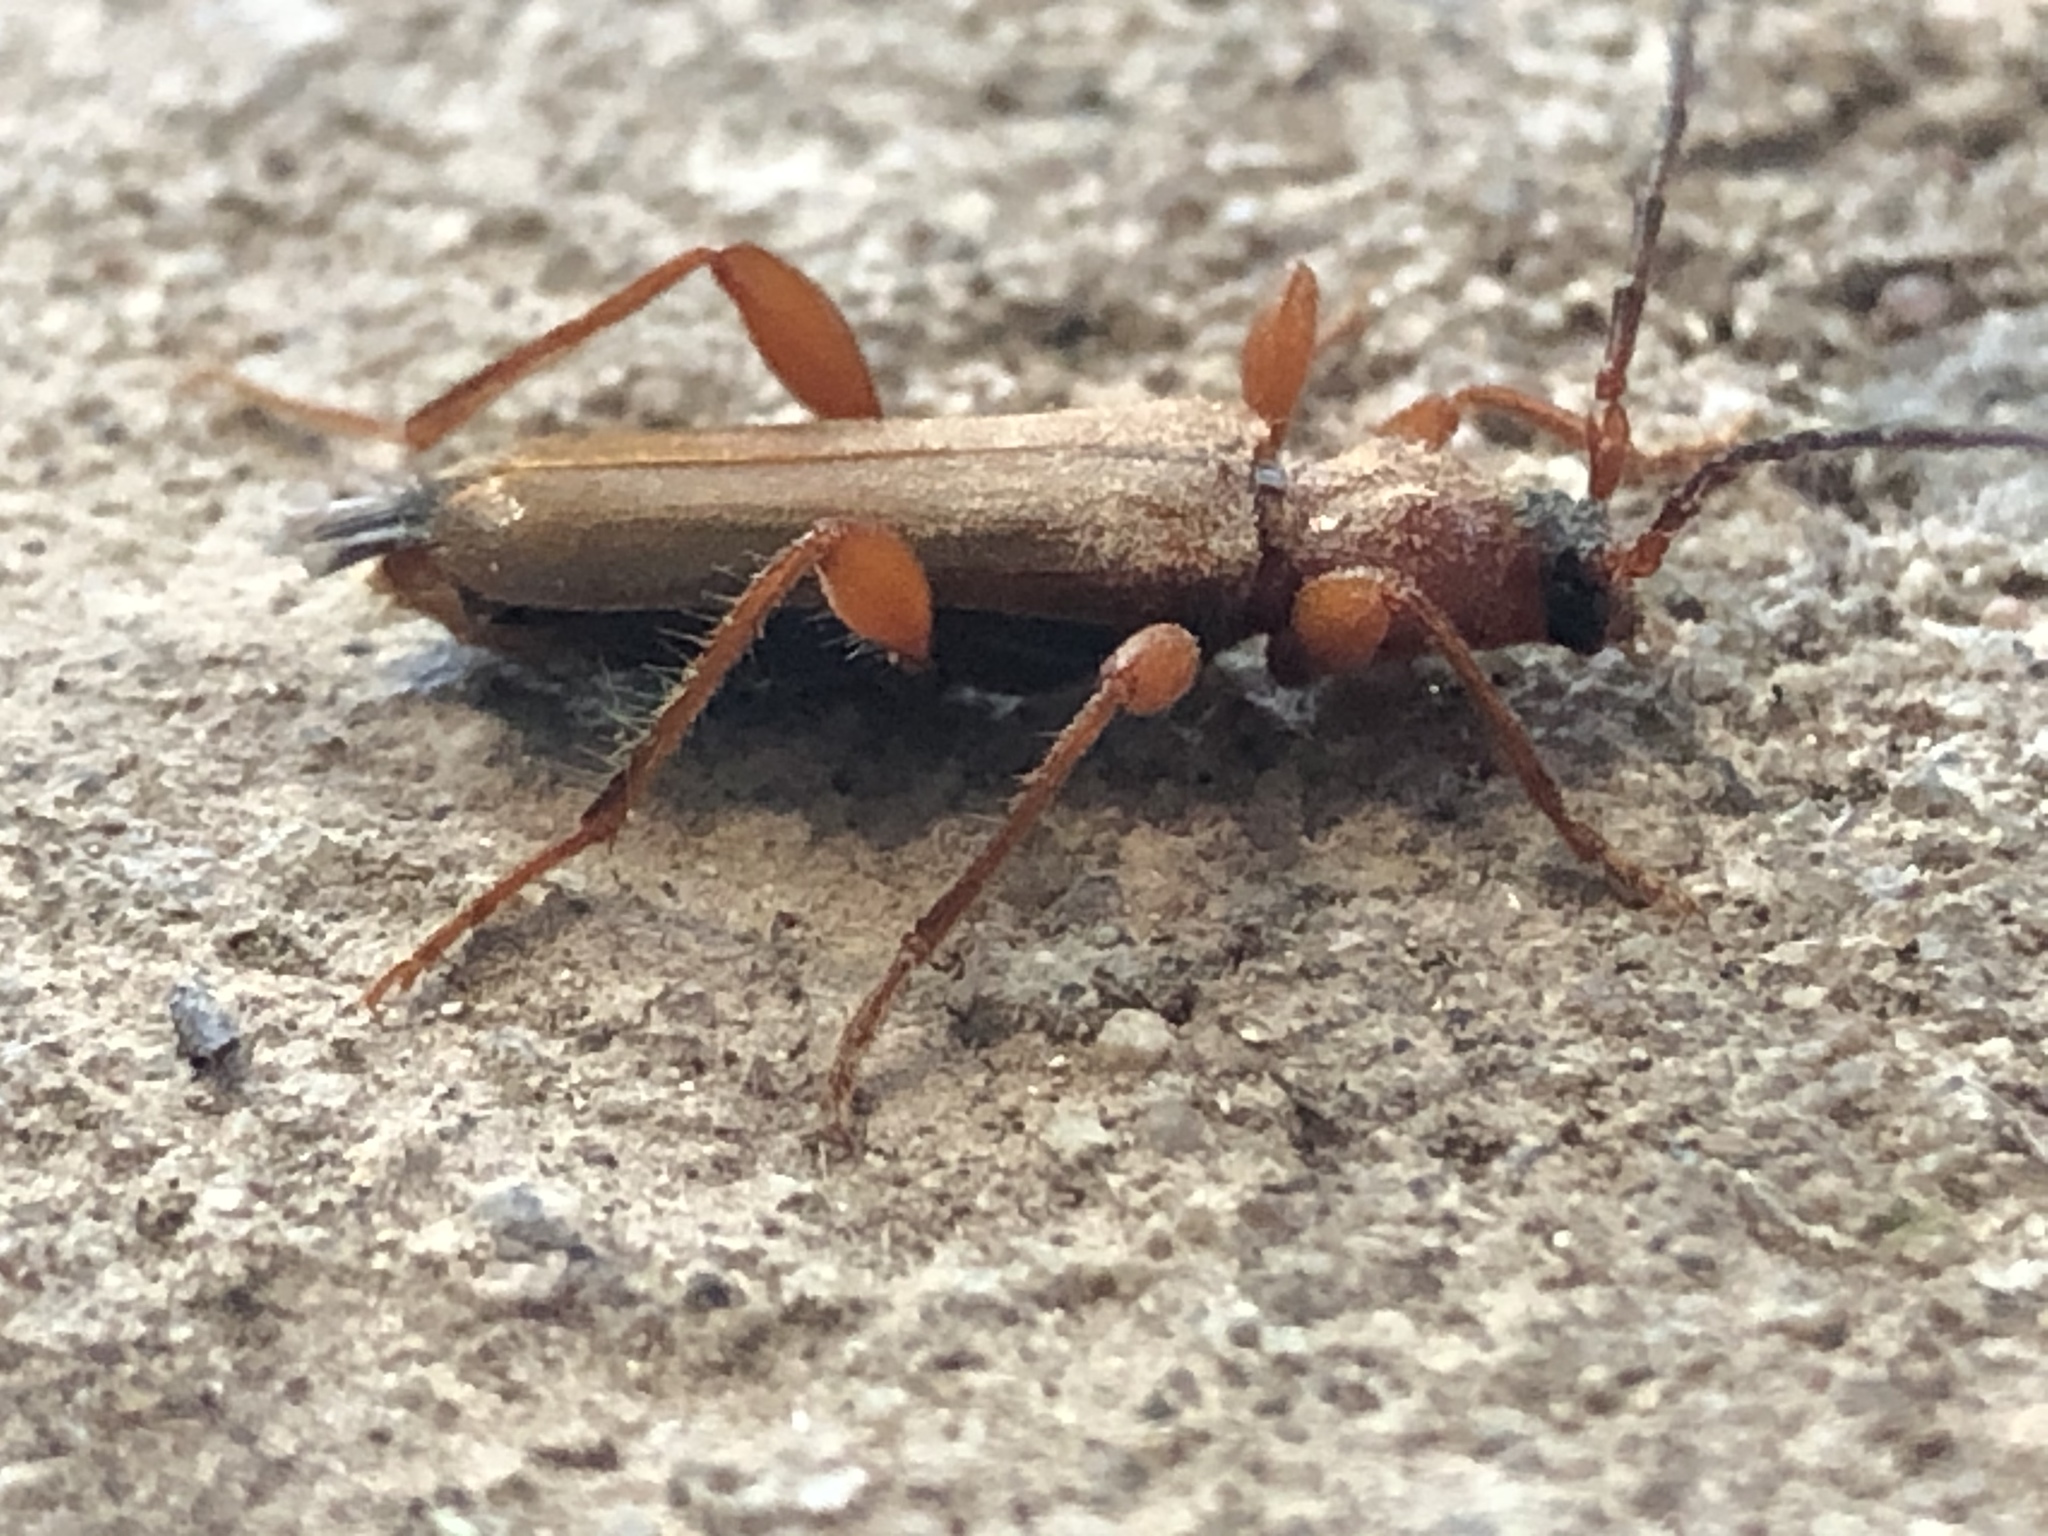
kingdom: Animalia
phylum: Arthropoda
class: Insecta
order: Coleoptera
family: Cerambycidae
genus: Phymatodes
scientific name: Phymatodes testaceus
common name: Long-horned beetle
